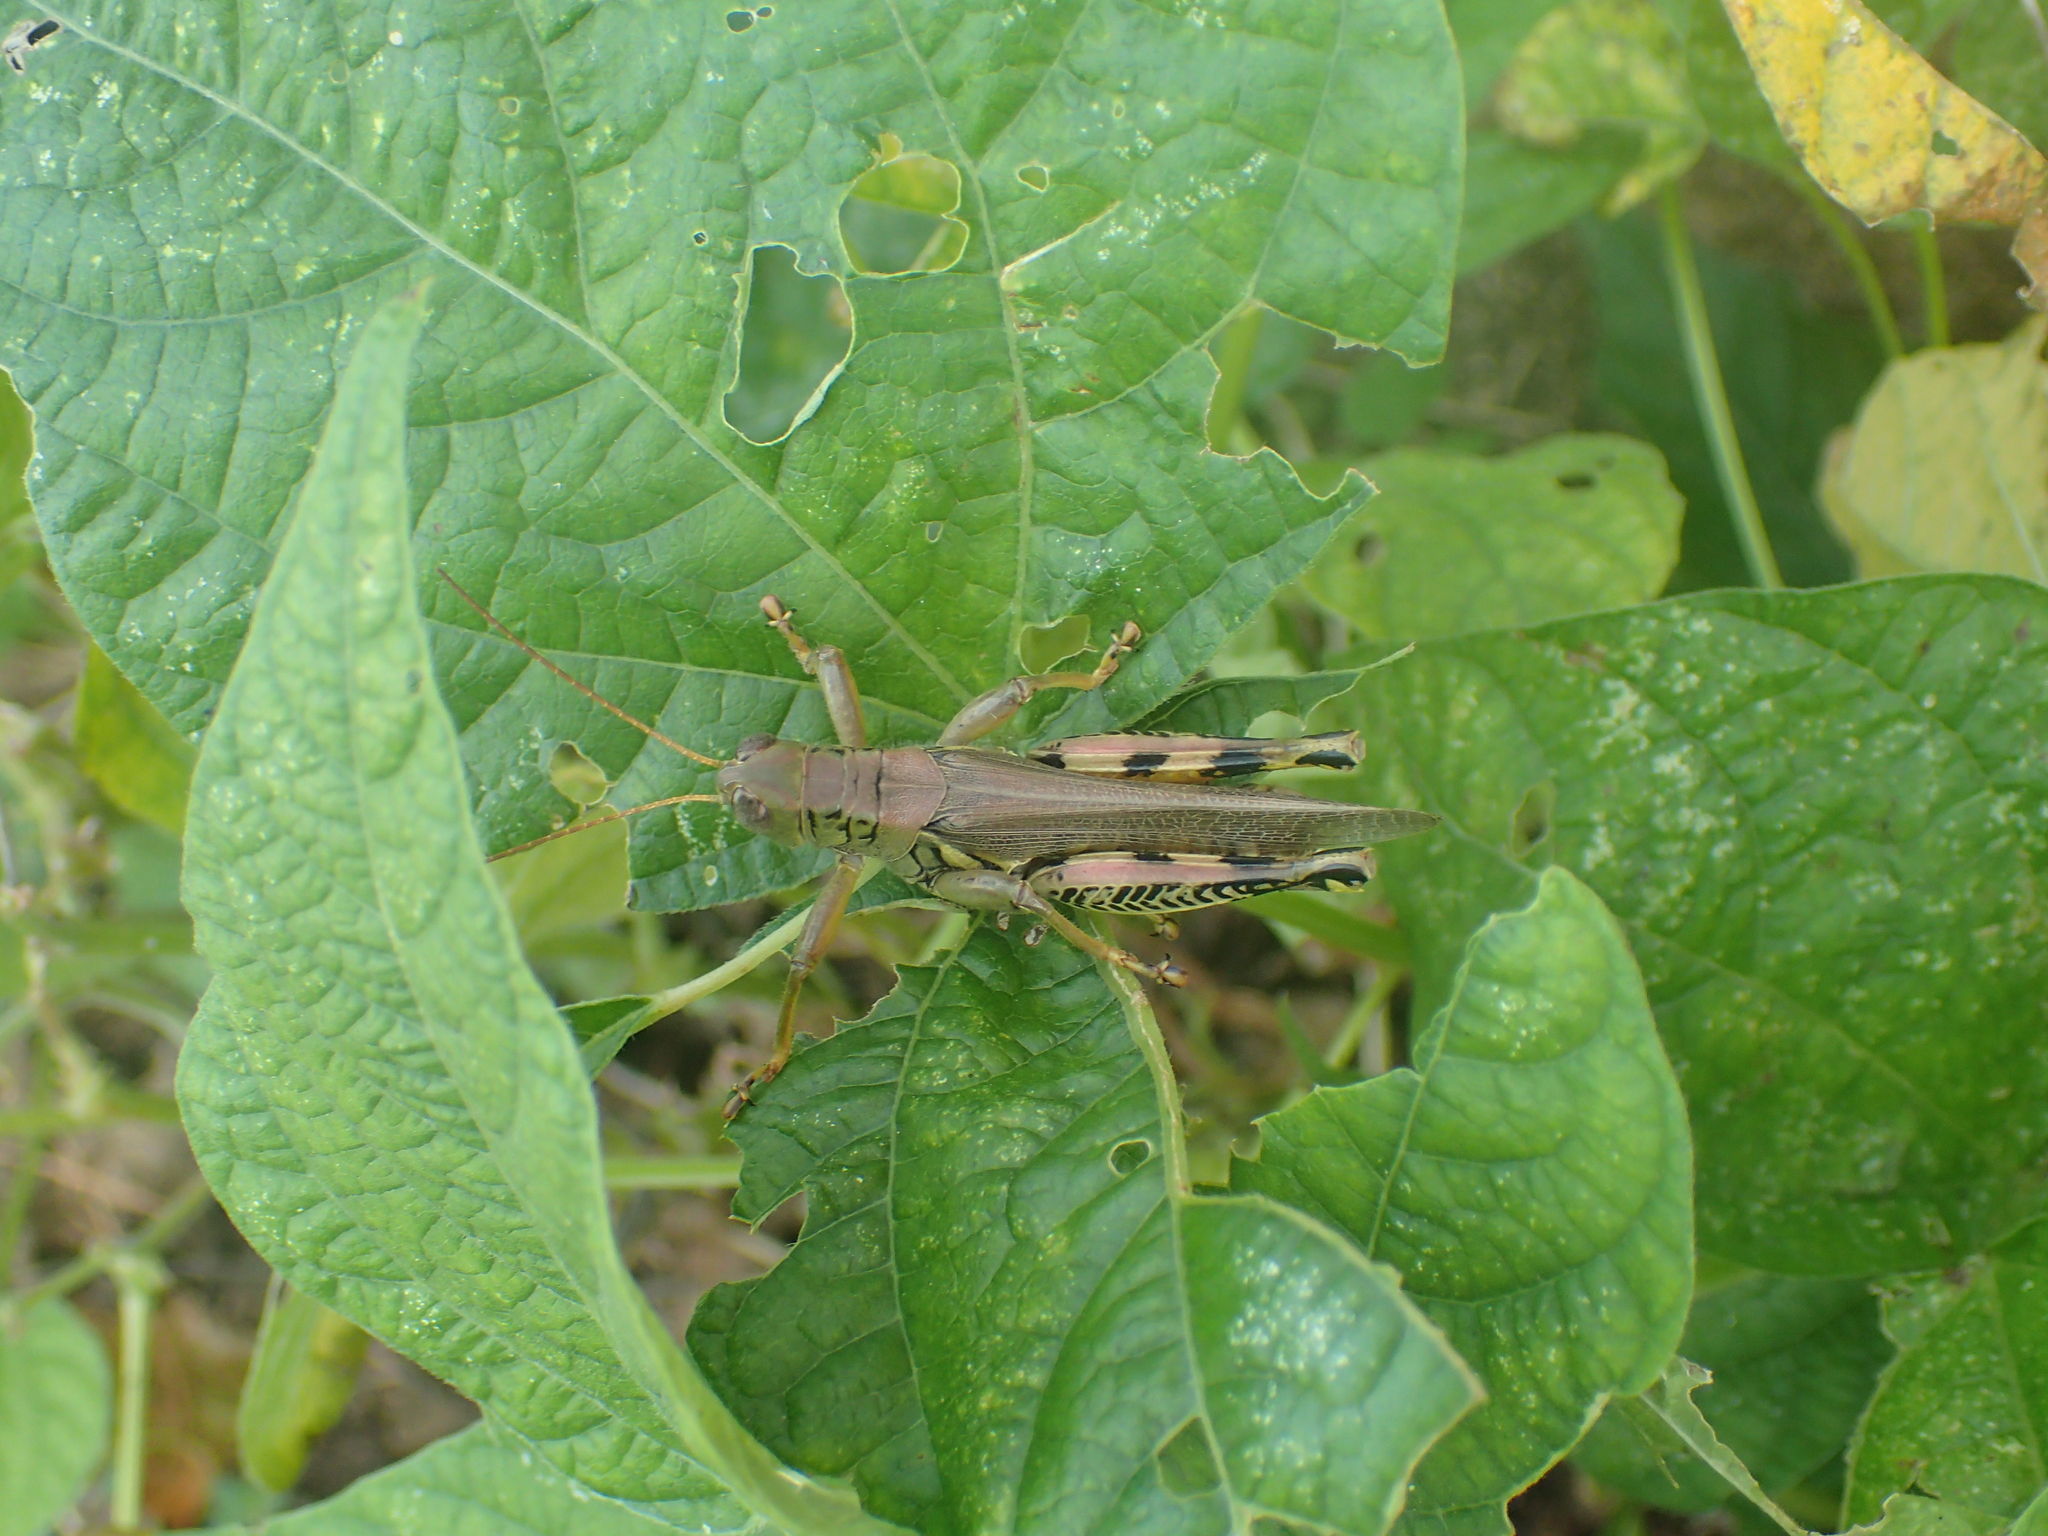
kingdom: Animalia
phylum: Arthropoda
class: Insecta
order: Orthoptera
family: Acrididae
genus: Melanoplus
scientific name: Melanoplus differentialis
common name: Differential grasshopper
